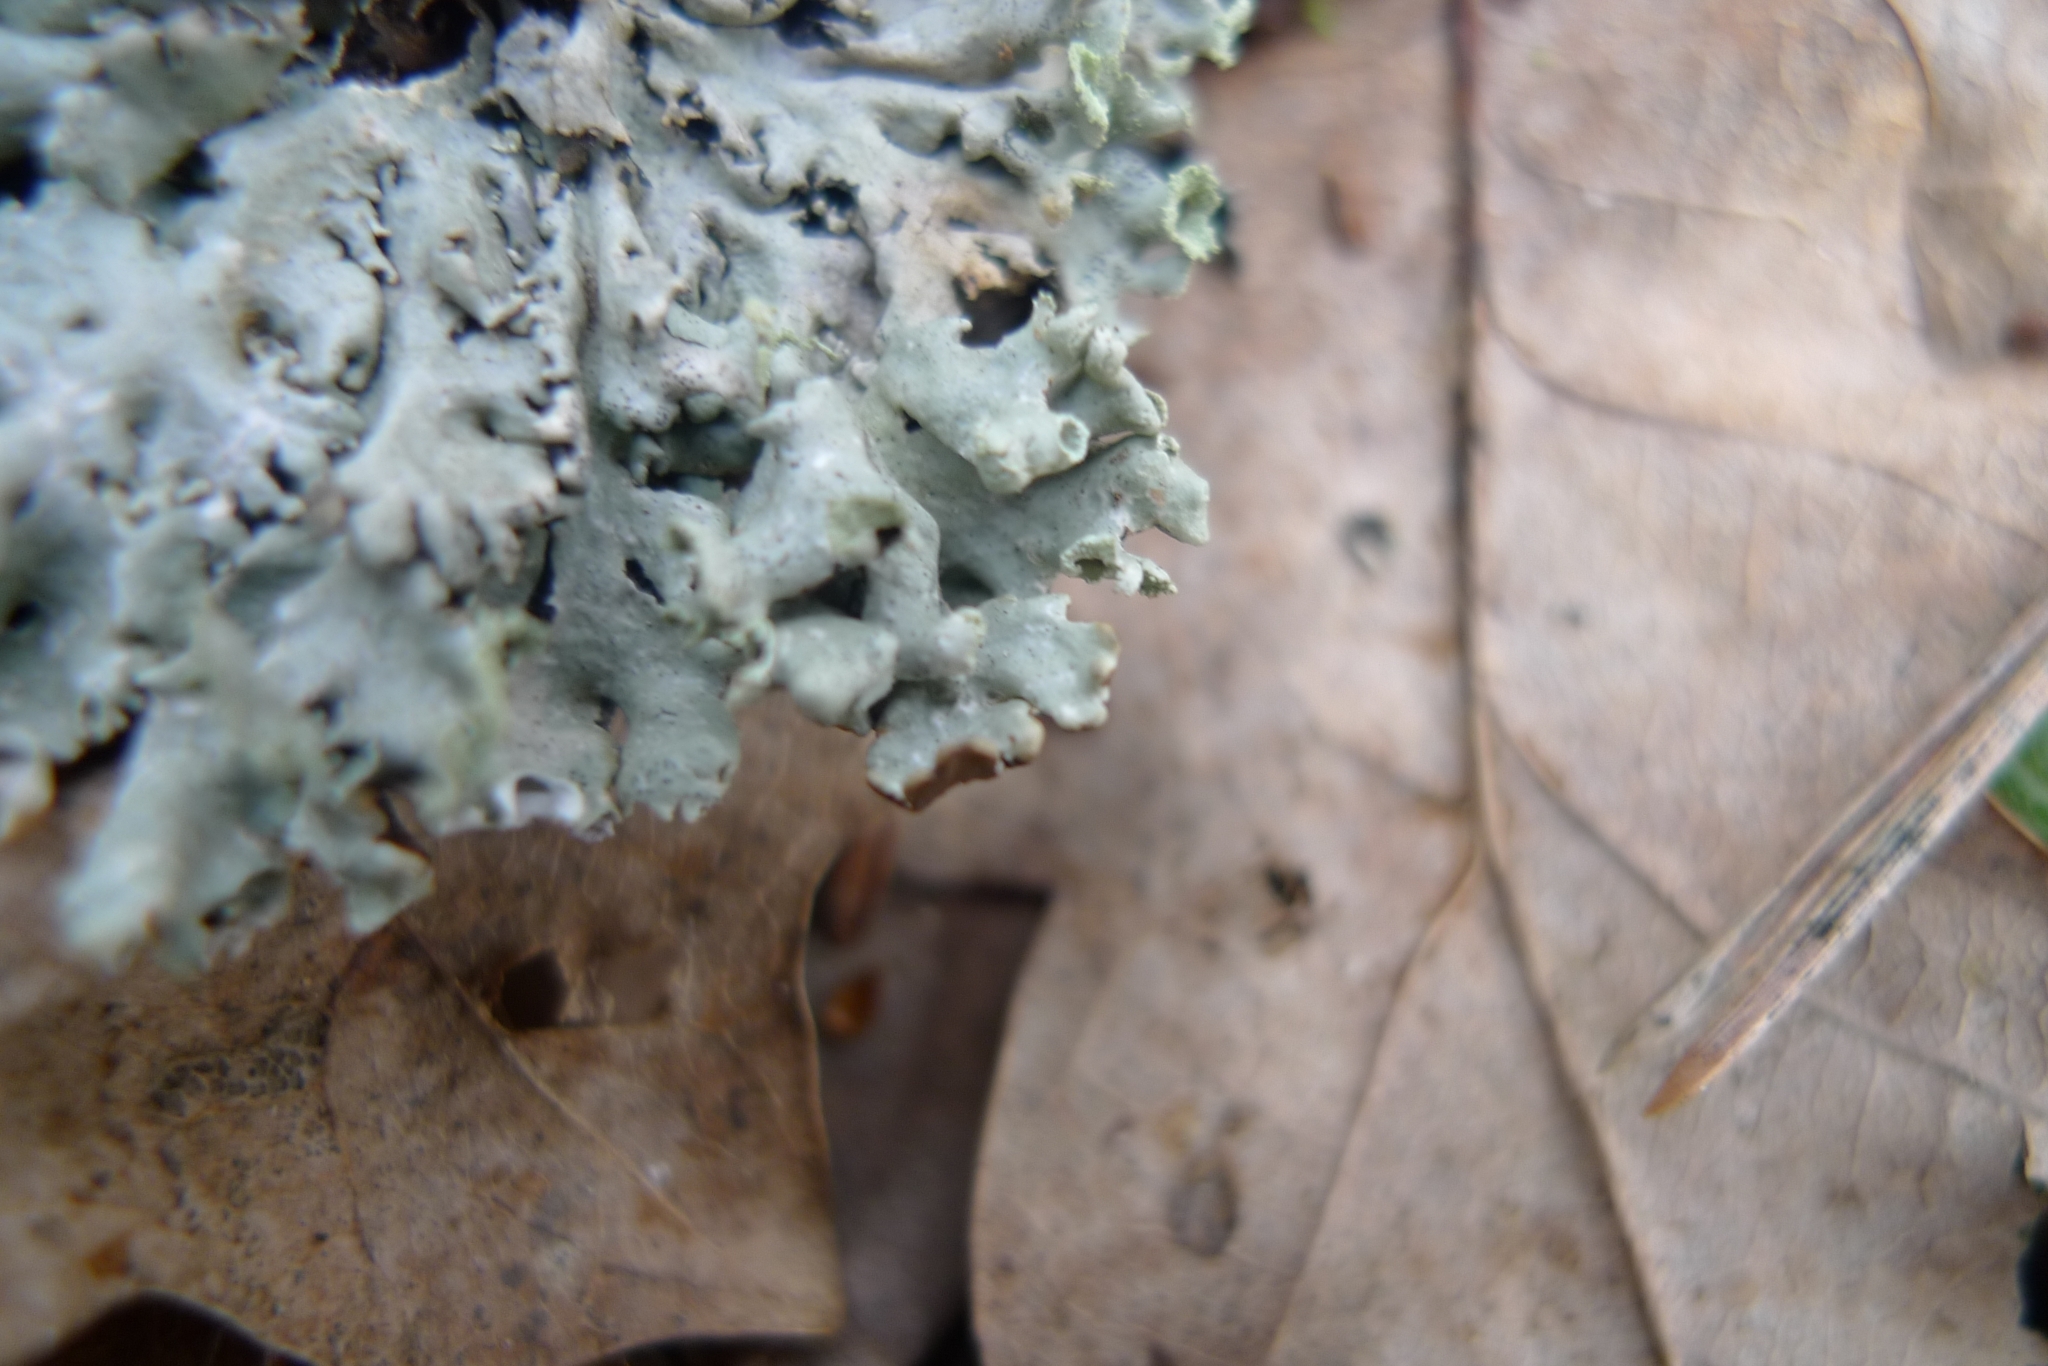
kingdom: Fungi
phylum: Ascomycota
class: Lecanoromycetes
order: Lecanorales
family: Parmeliaceae
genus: Hypogymnia
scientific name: Hypogymnia physodes
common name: Dark crottle
